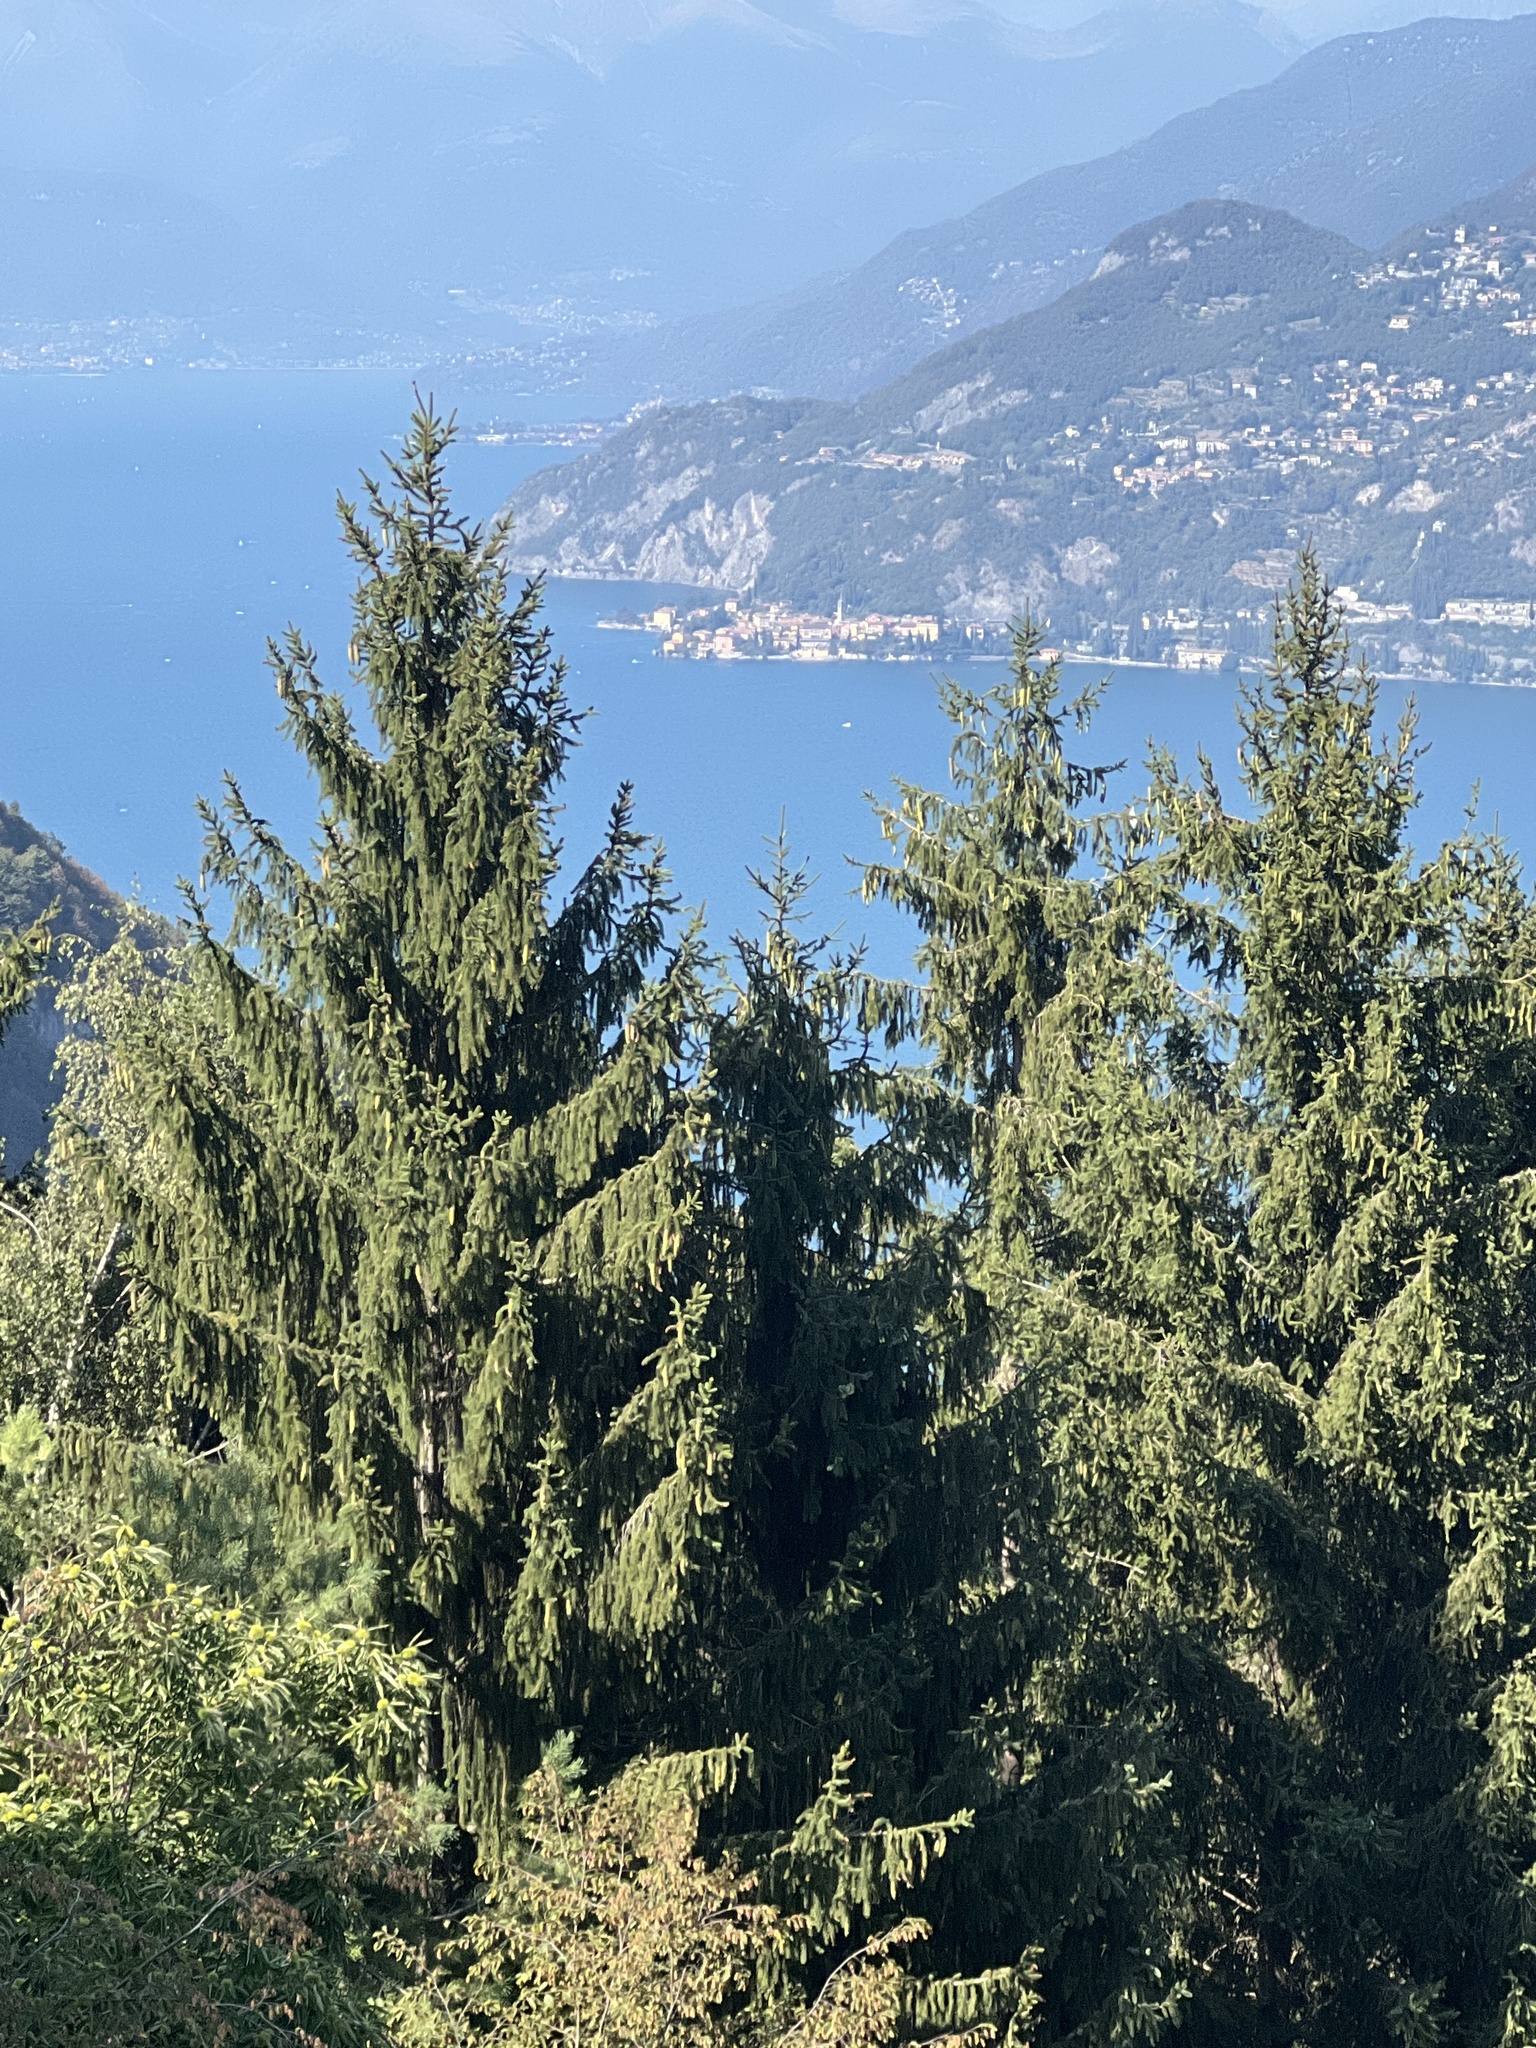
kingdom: Plantae
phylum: Tracheophyta
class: Pinopsida
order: Pinales
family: Pinaceae
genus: Picea
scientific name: Picea abies
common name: Norway spruce
